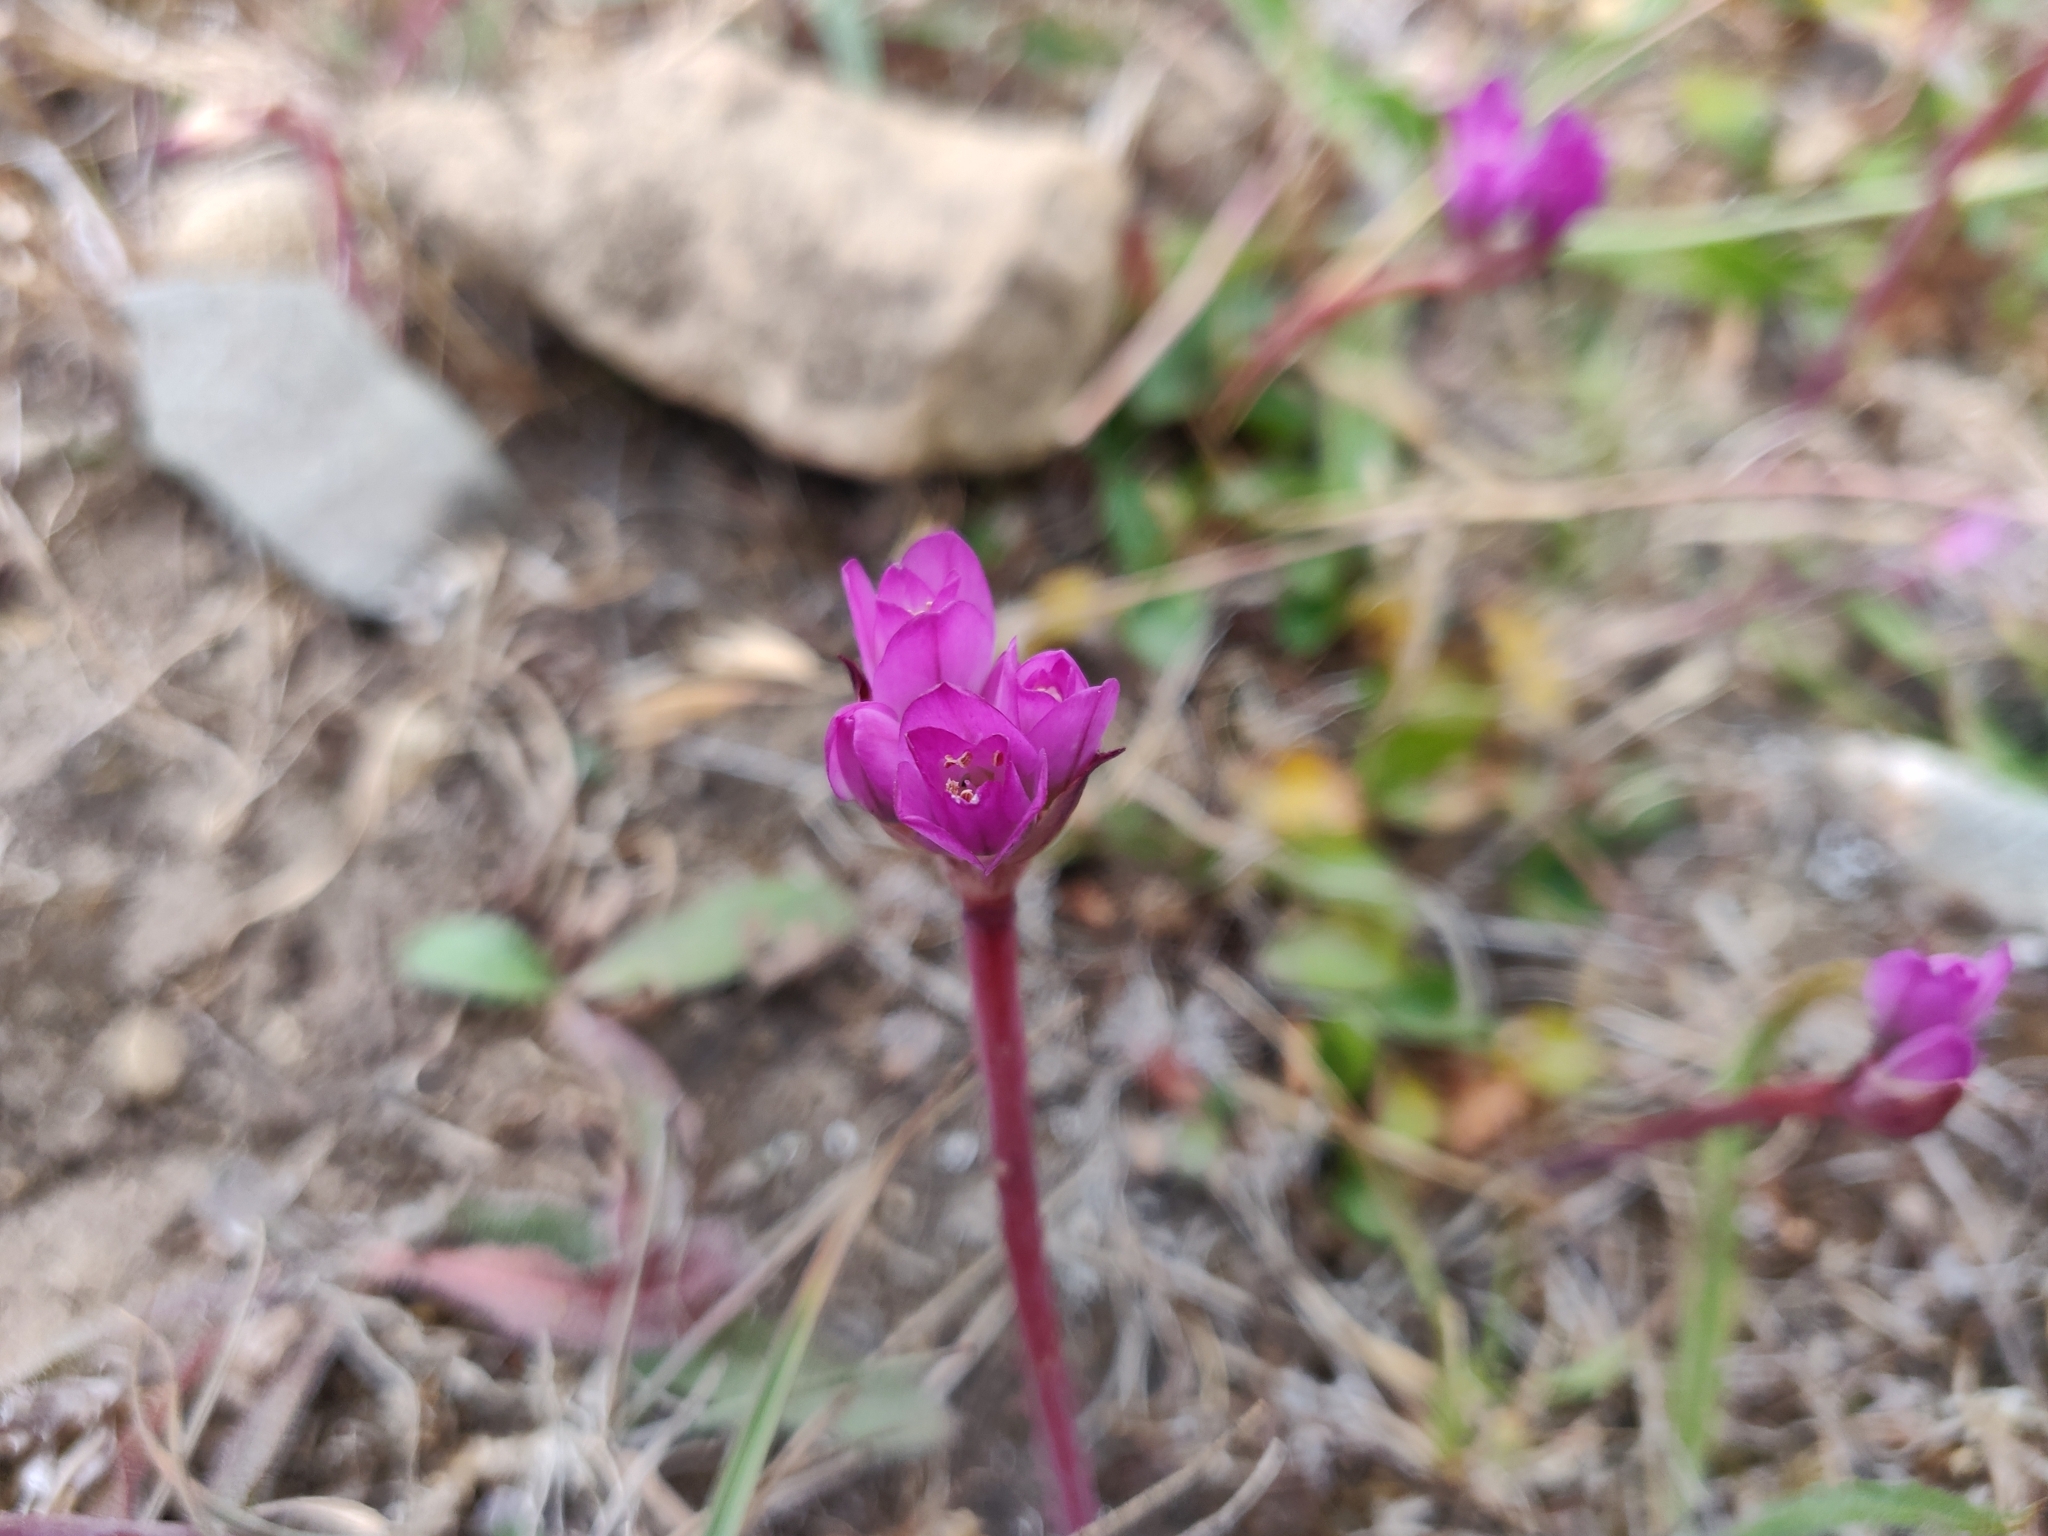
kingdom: Plantae
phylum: Tracheophyta
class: Liliopsida
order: Asparagales
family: Amaryllidaceae
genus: Allium
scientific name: Allium dichlamydeum
